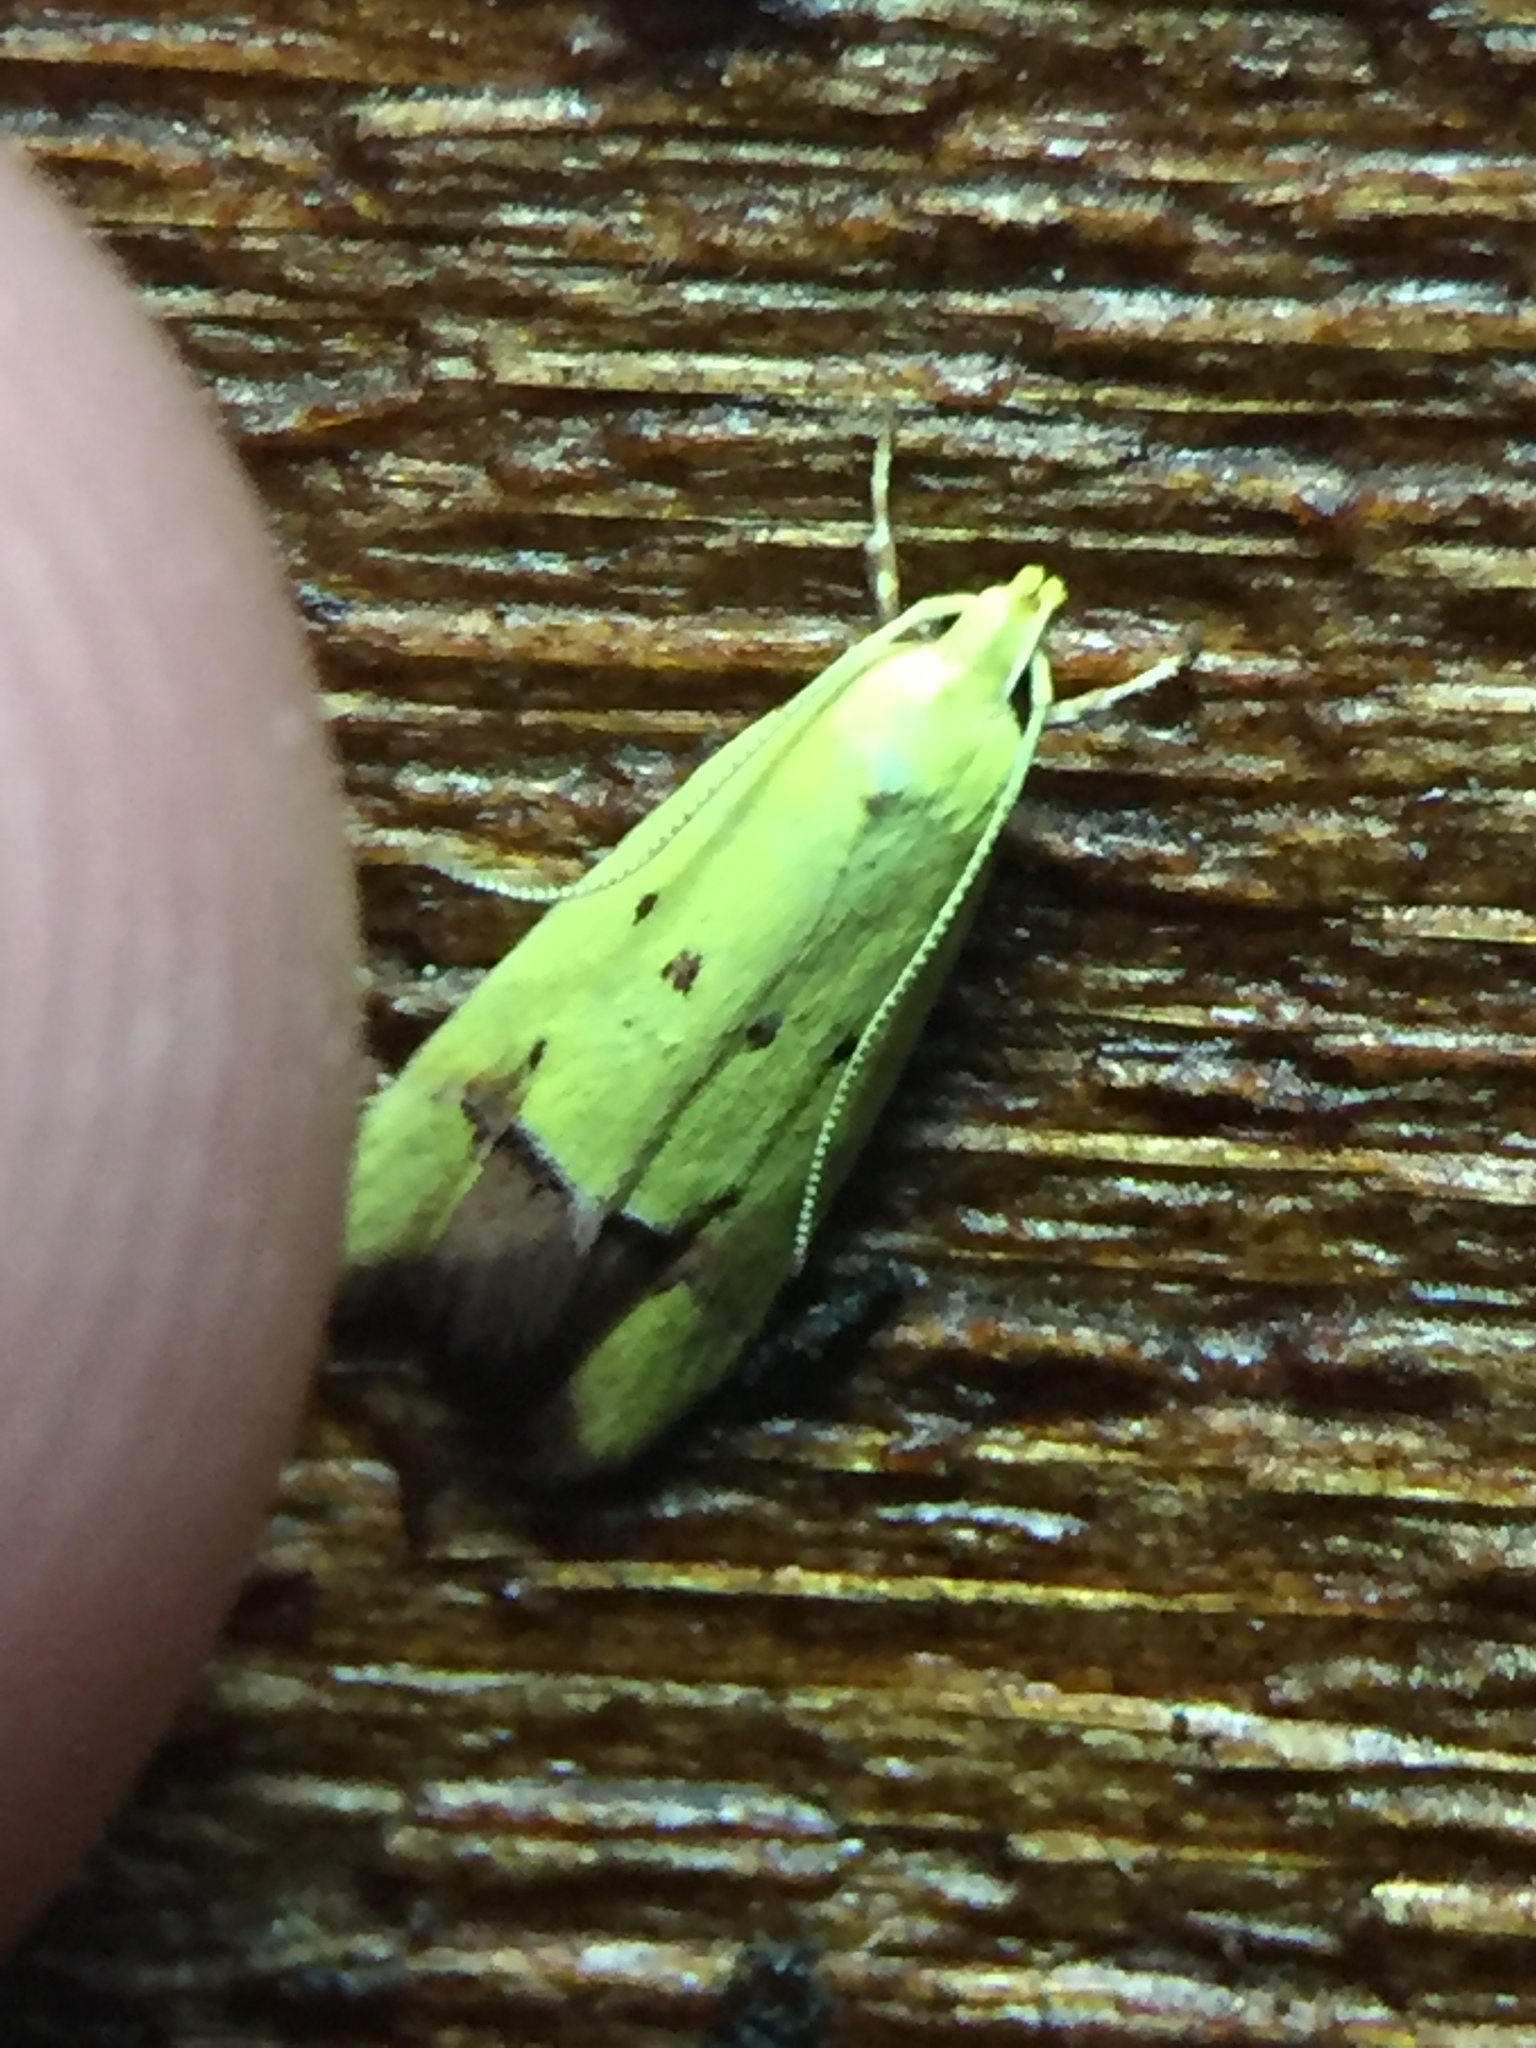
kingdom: Animalia
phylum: Arthropoda
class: Insecta
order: Lepidoptera
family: Oecophoridae
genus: Gymnobathra
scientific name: Gymnobathra flavidella
